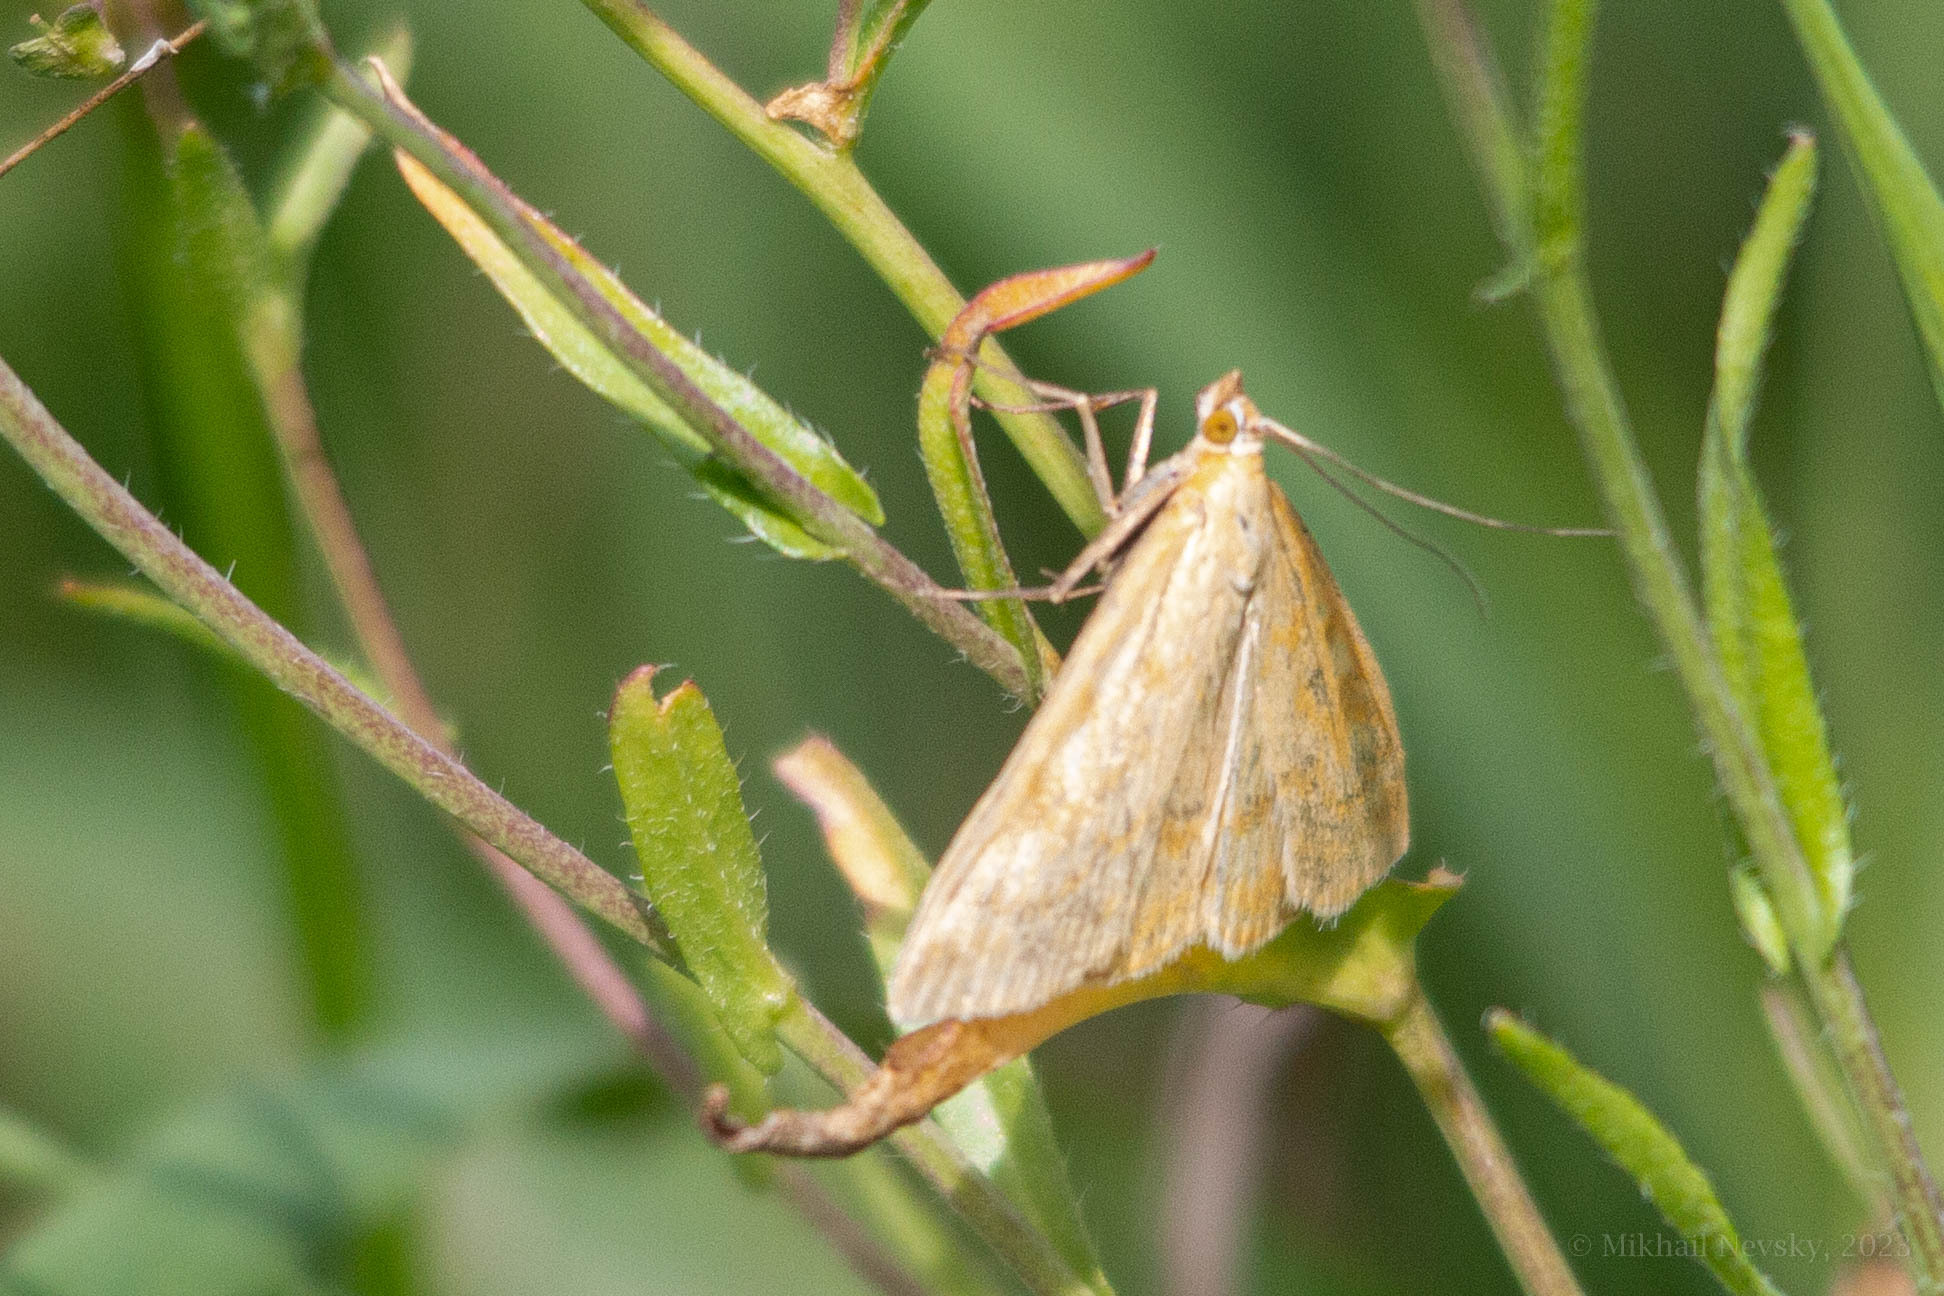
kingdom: Animalia
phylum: Arthropoda
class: Insecta
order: Lepidoptera
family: Crambidae
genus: Sitochroa
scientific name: Sitochroa verticalis
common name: Lesser pearl
